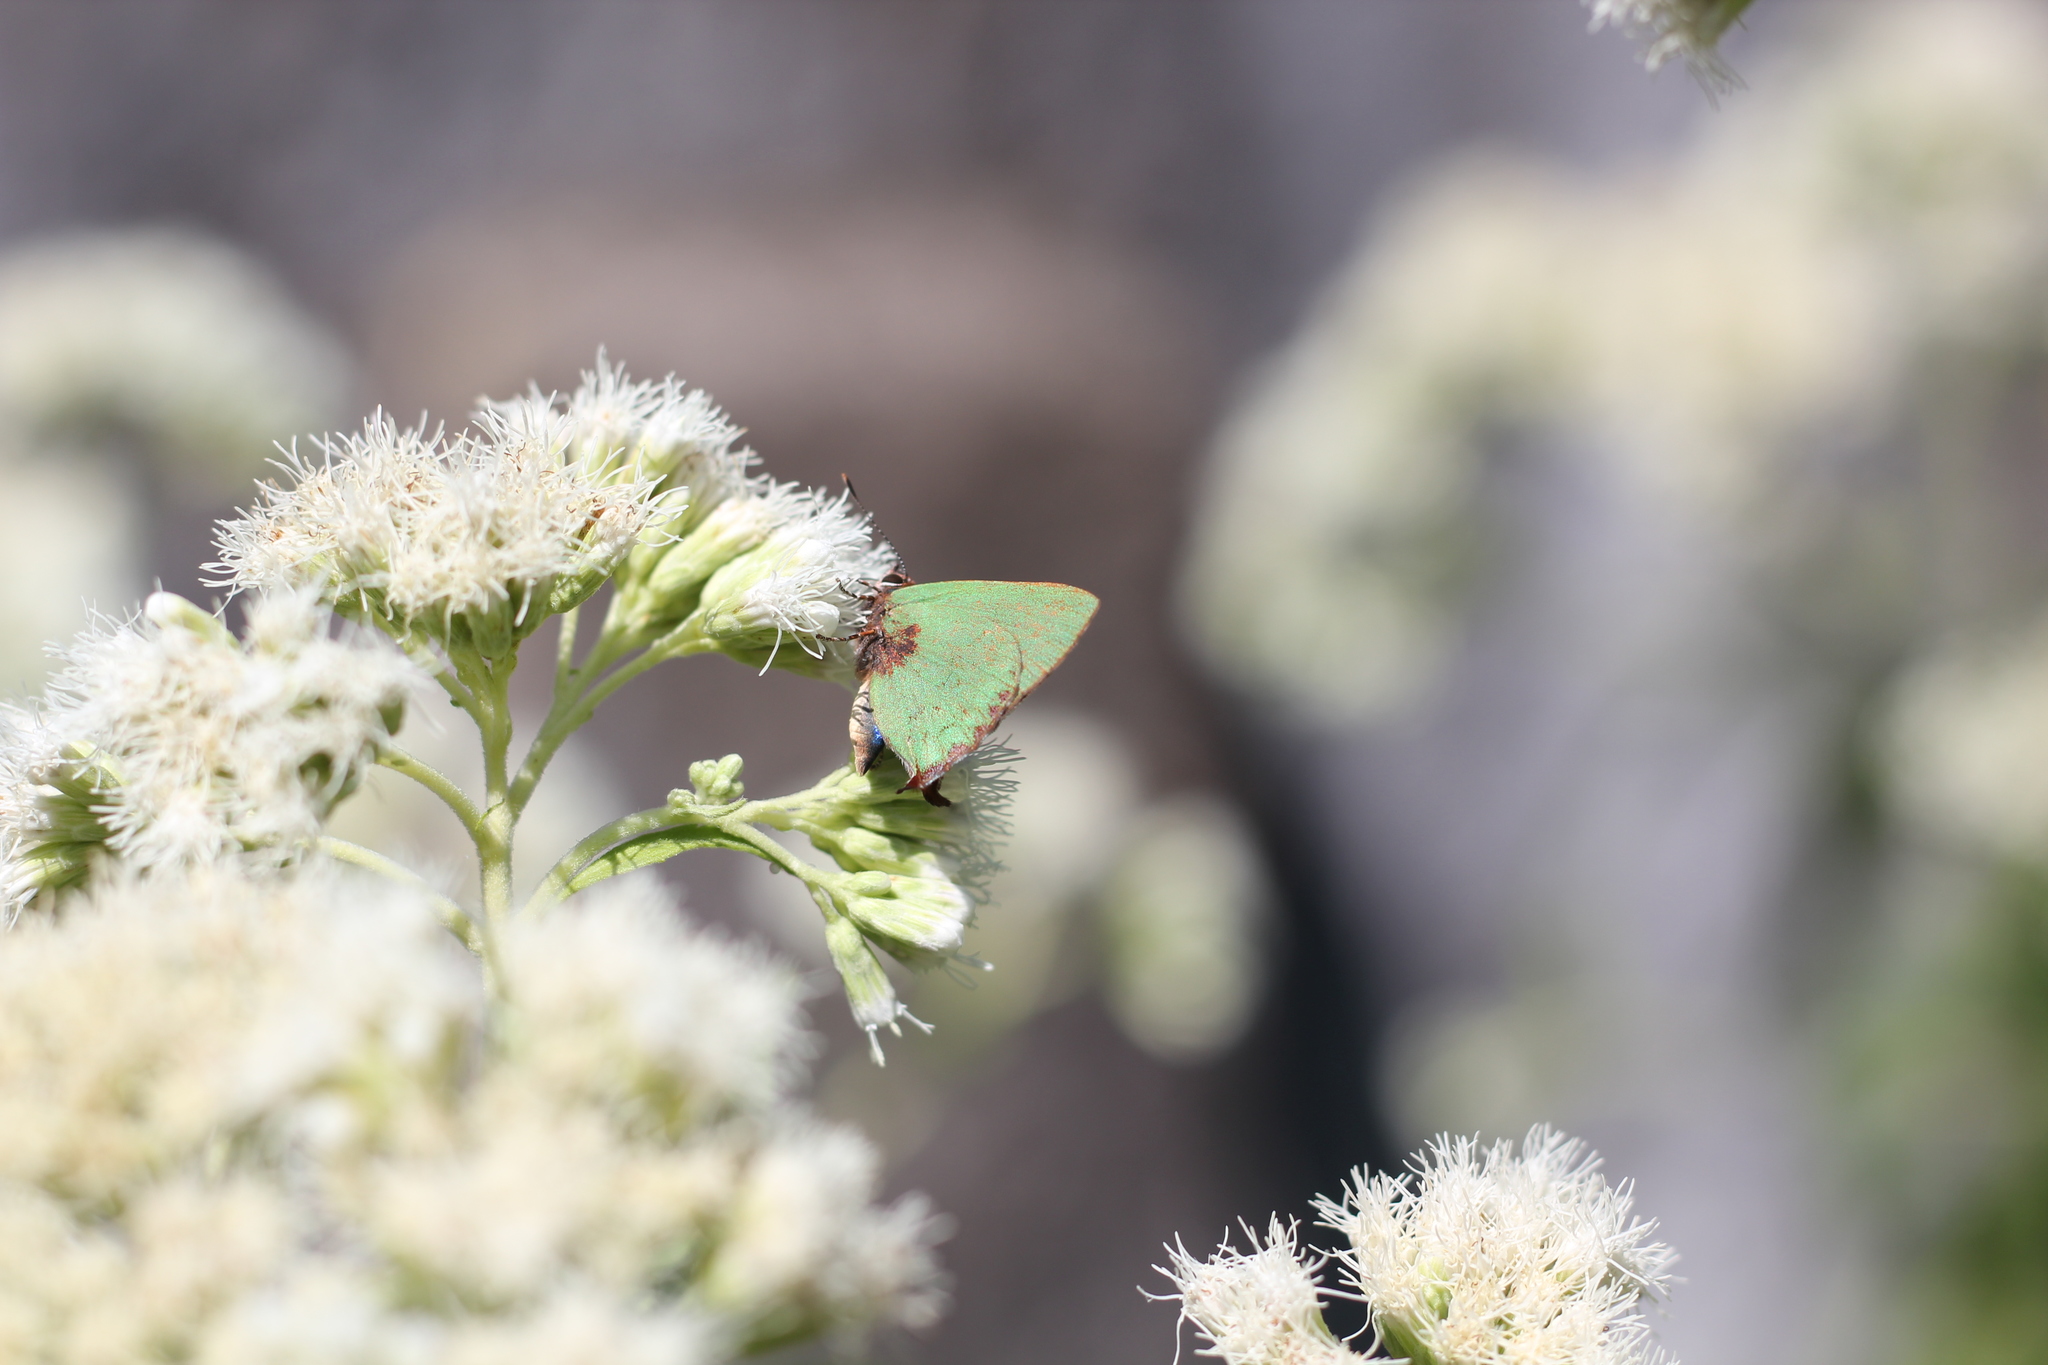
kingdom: Animalia
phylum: Arthropoda
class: Insecta
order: Lepidoptera
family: Lycaenidae
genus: Cyanophrys
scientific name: Cyanophrys
